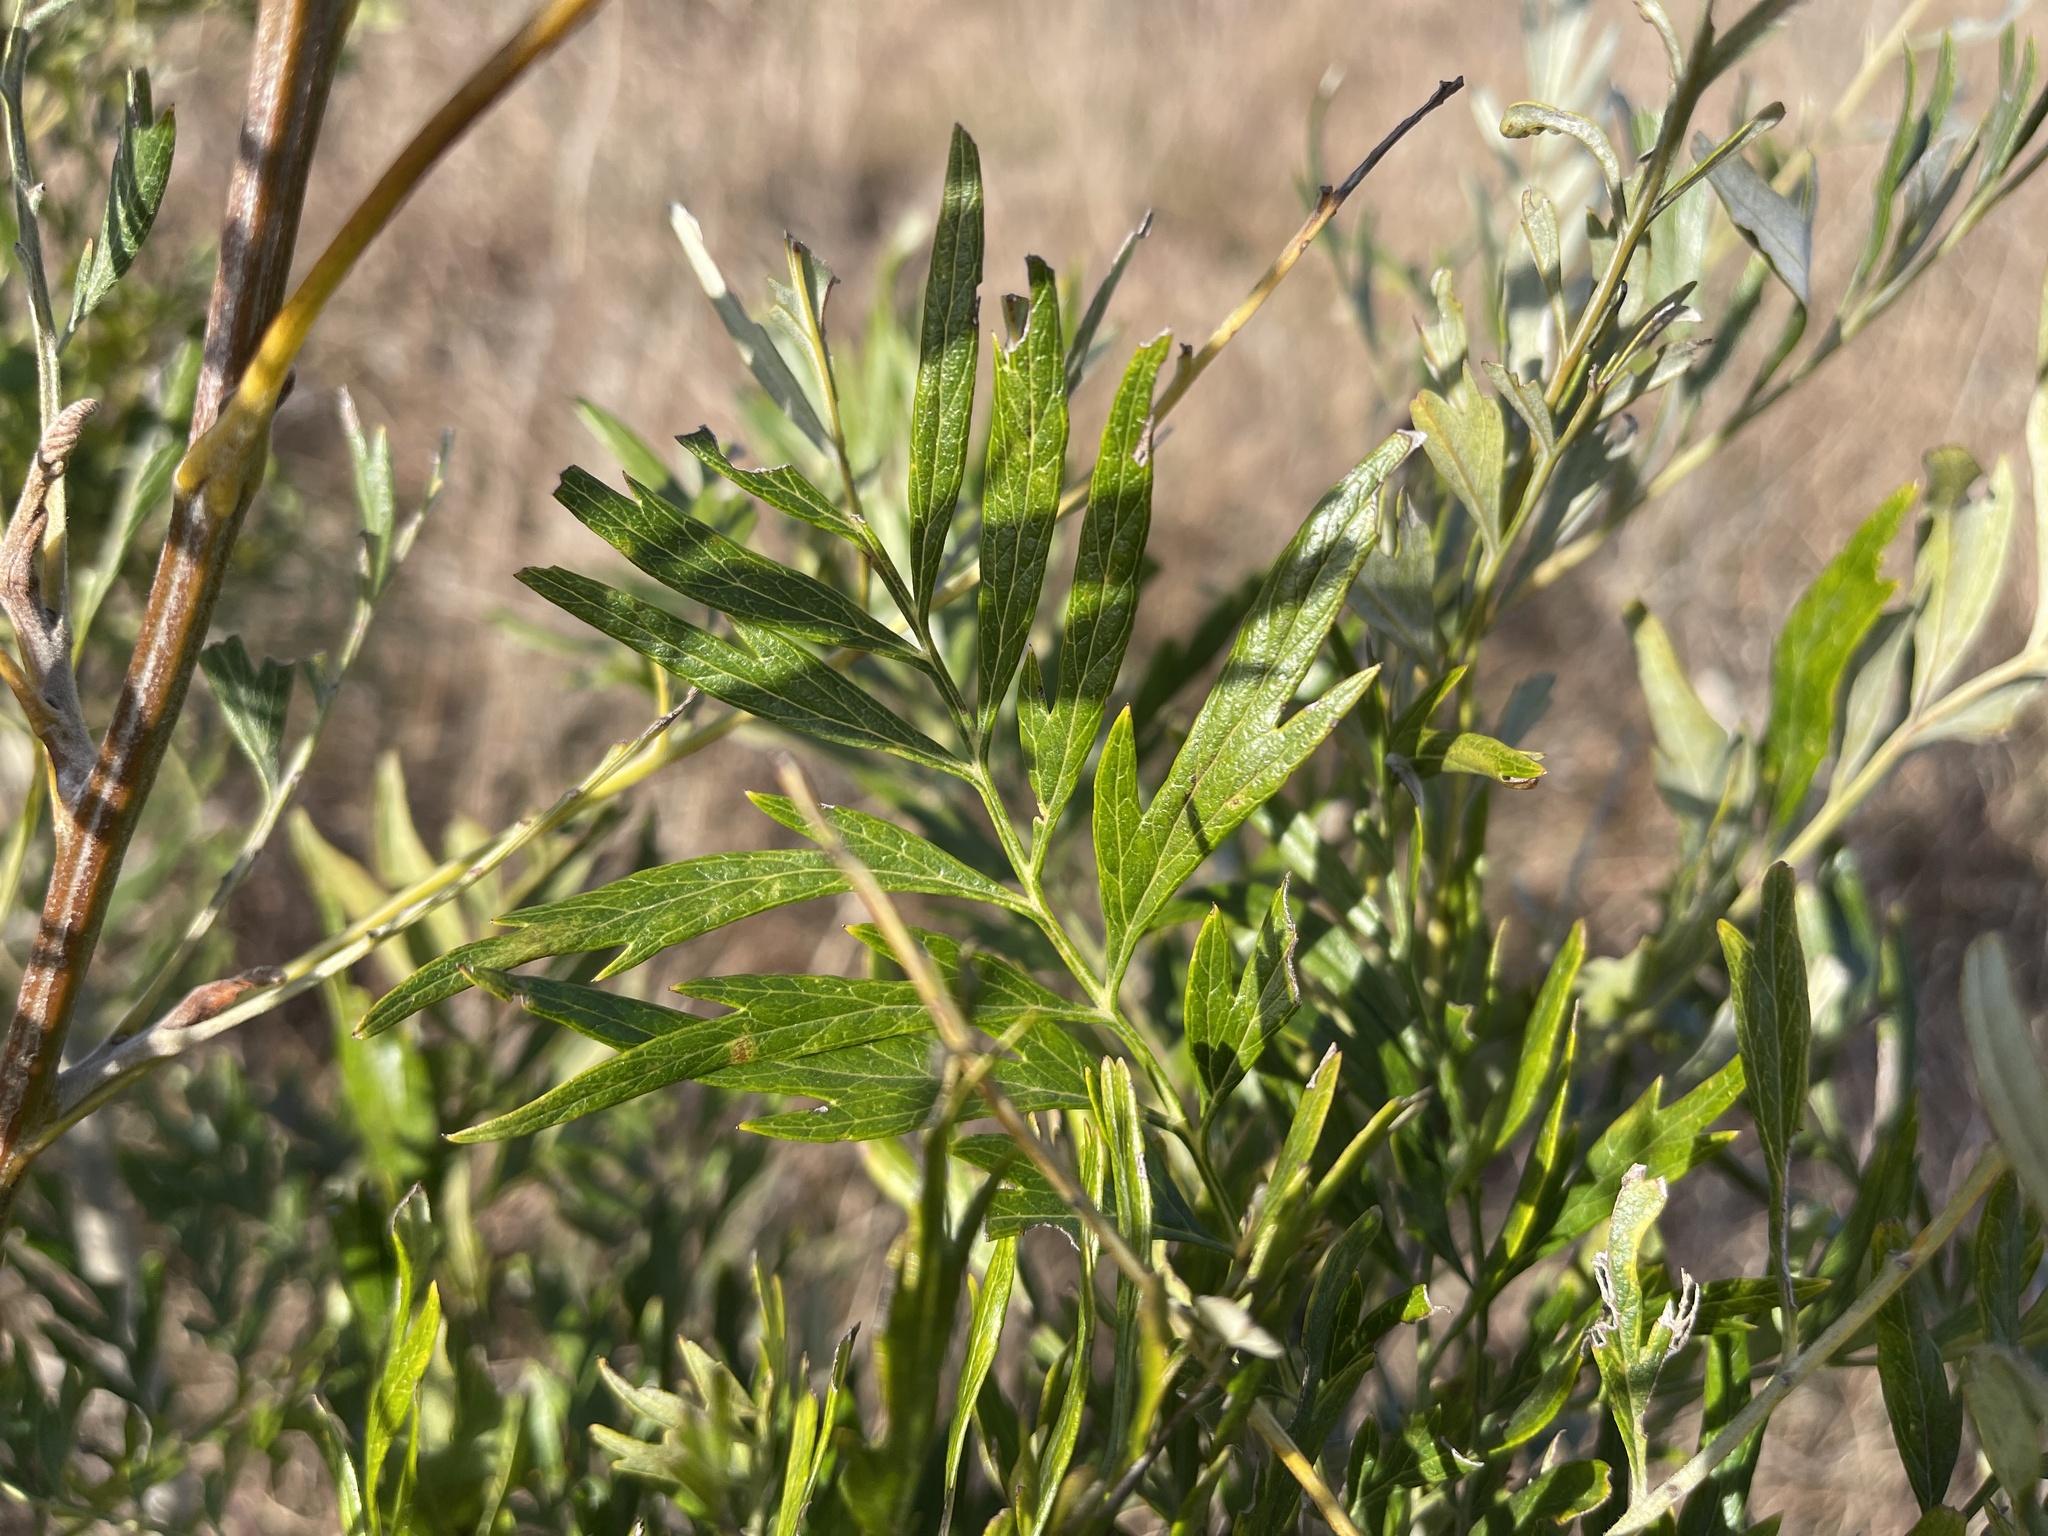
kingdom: Plantae
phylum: Tracheophyta
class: Magnoliopsida
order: Proteales
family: Proteaceae
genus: Grevillea
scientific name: Grevillea robusta
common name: Silkoak
